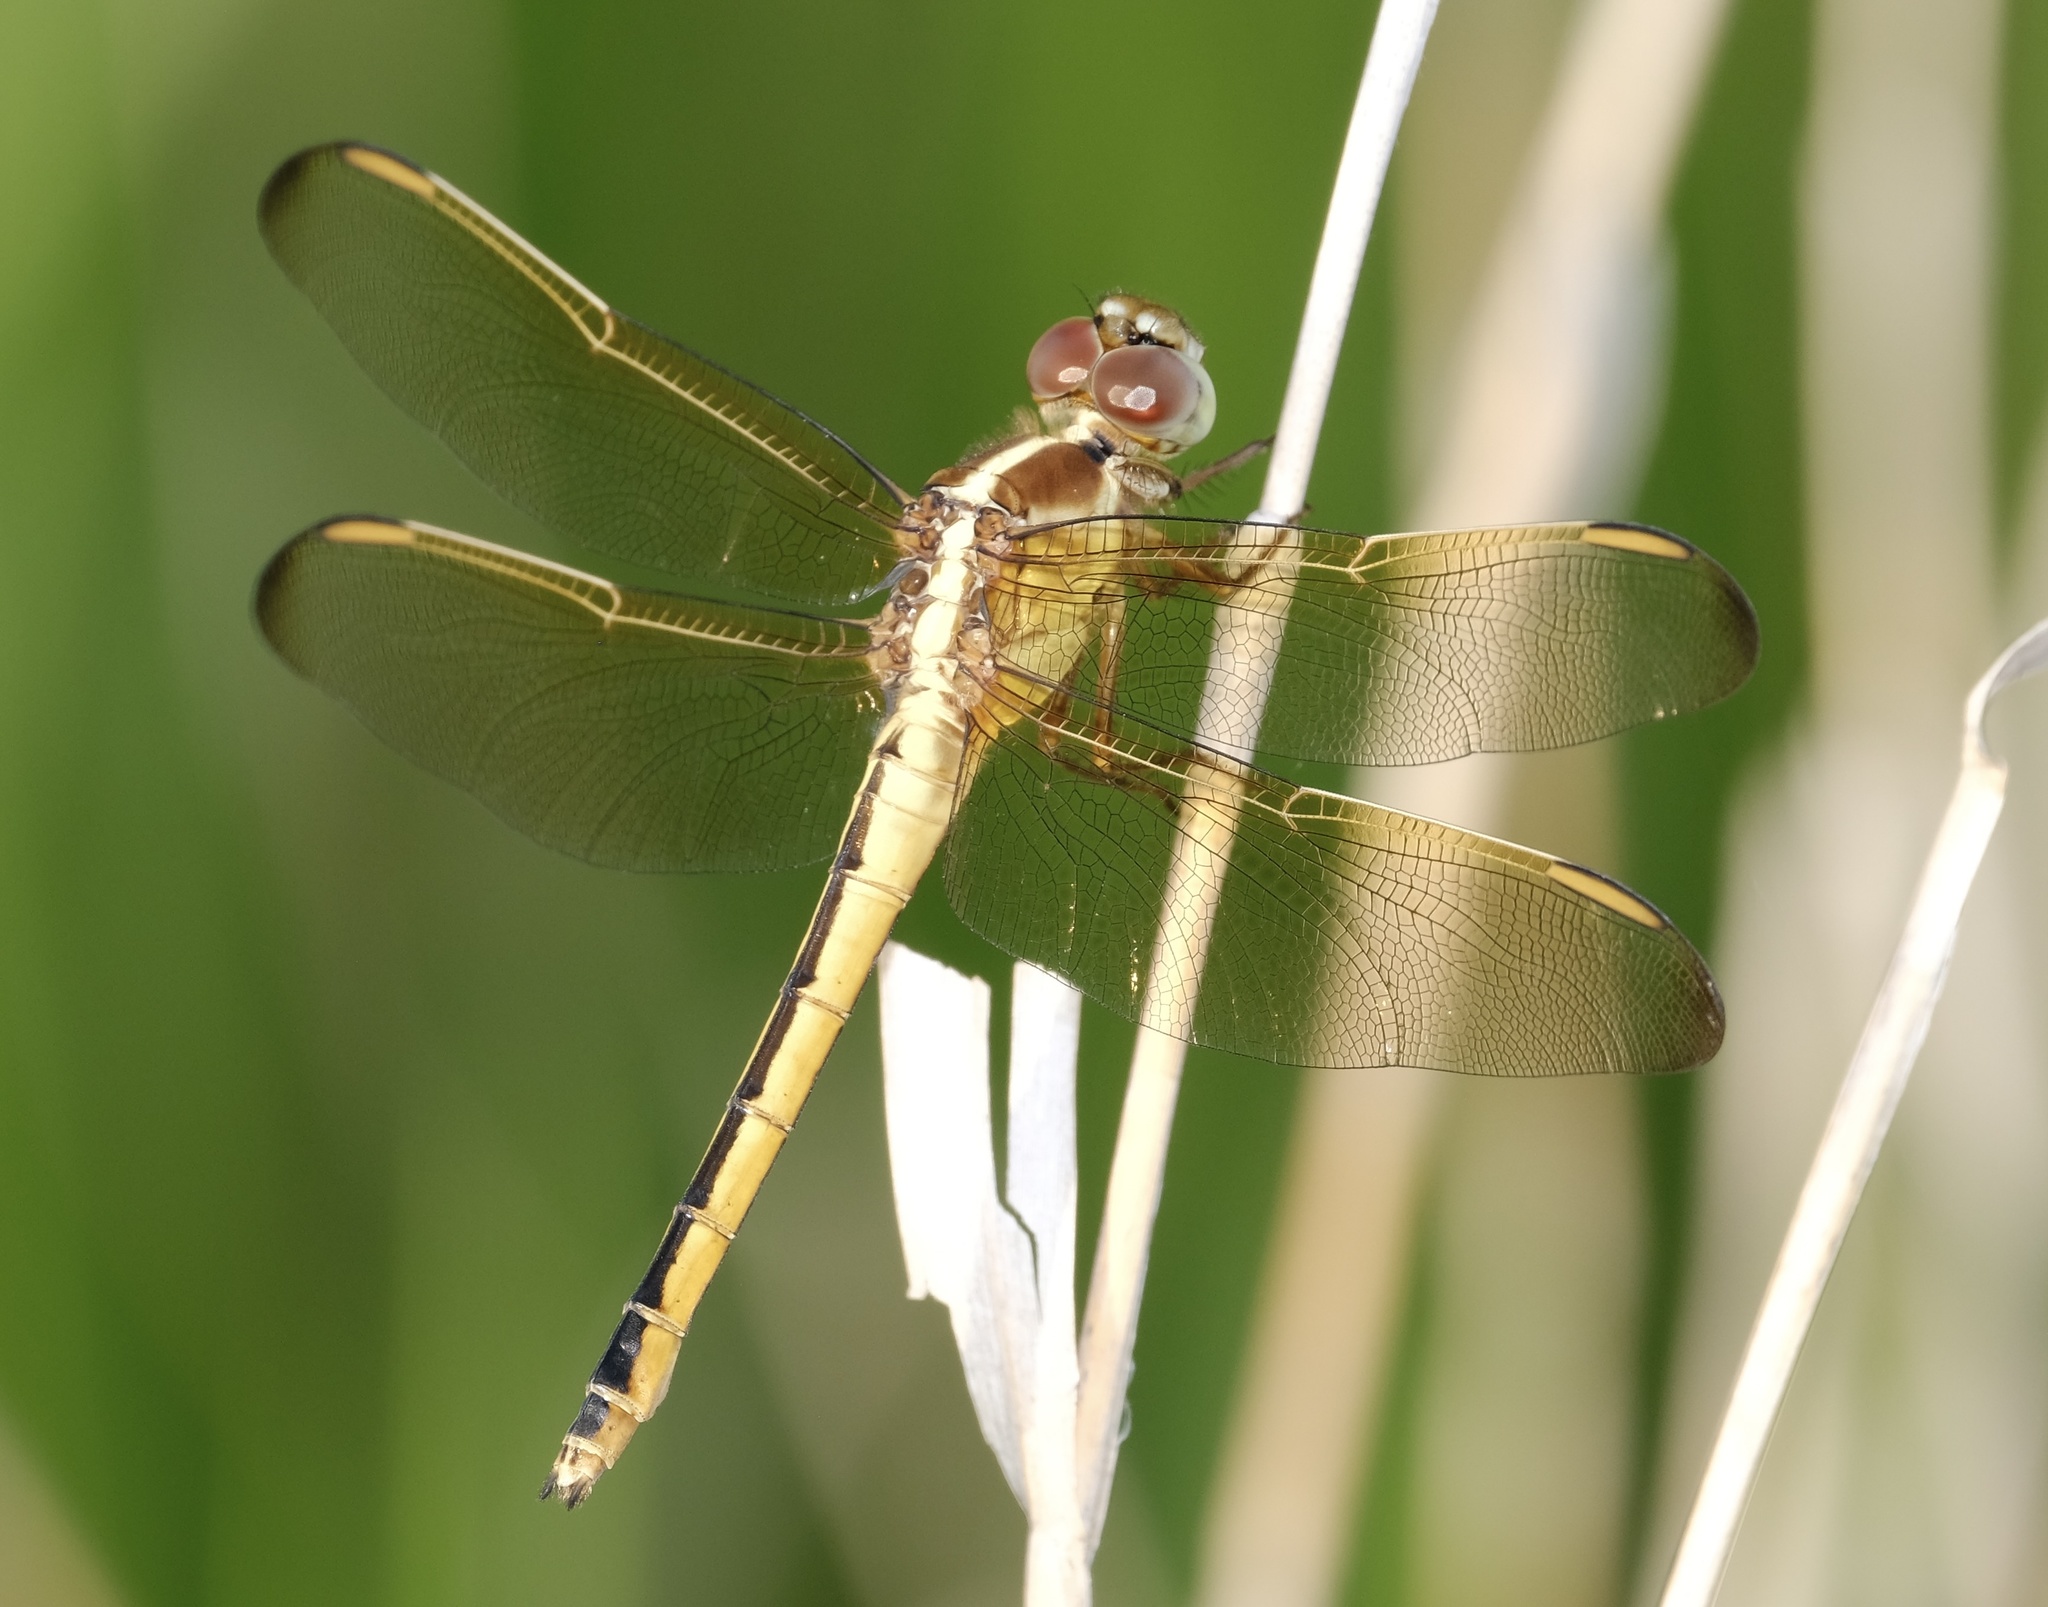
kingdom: Animalia
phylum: Arthropoda
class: Insecta
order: Odonata
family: Libellulidae
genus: Libellula
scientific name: Libellula needhami
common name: Needham's skimmer
